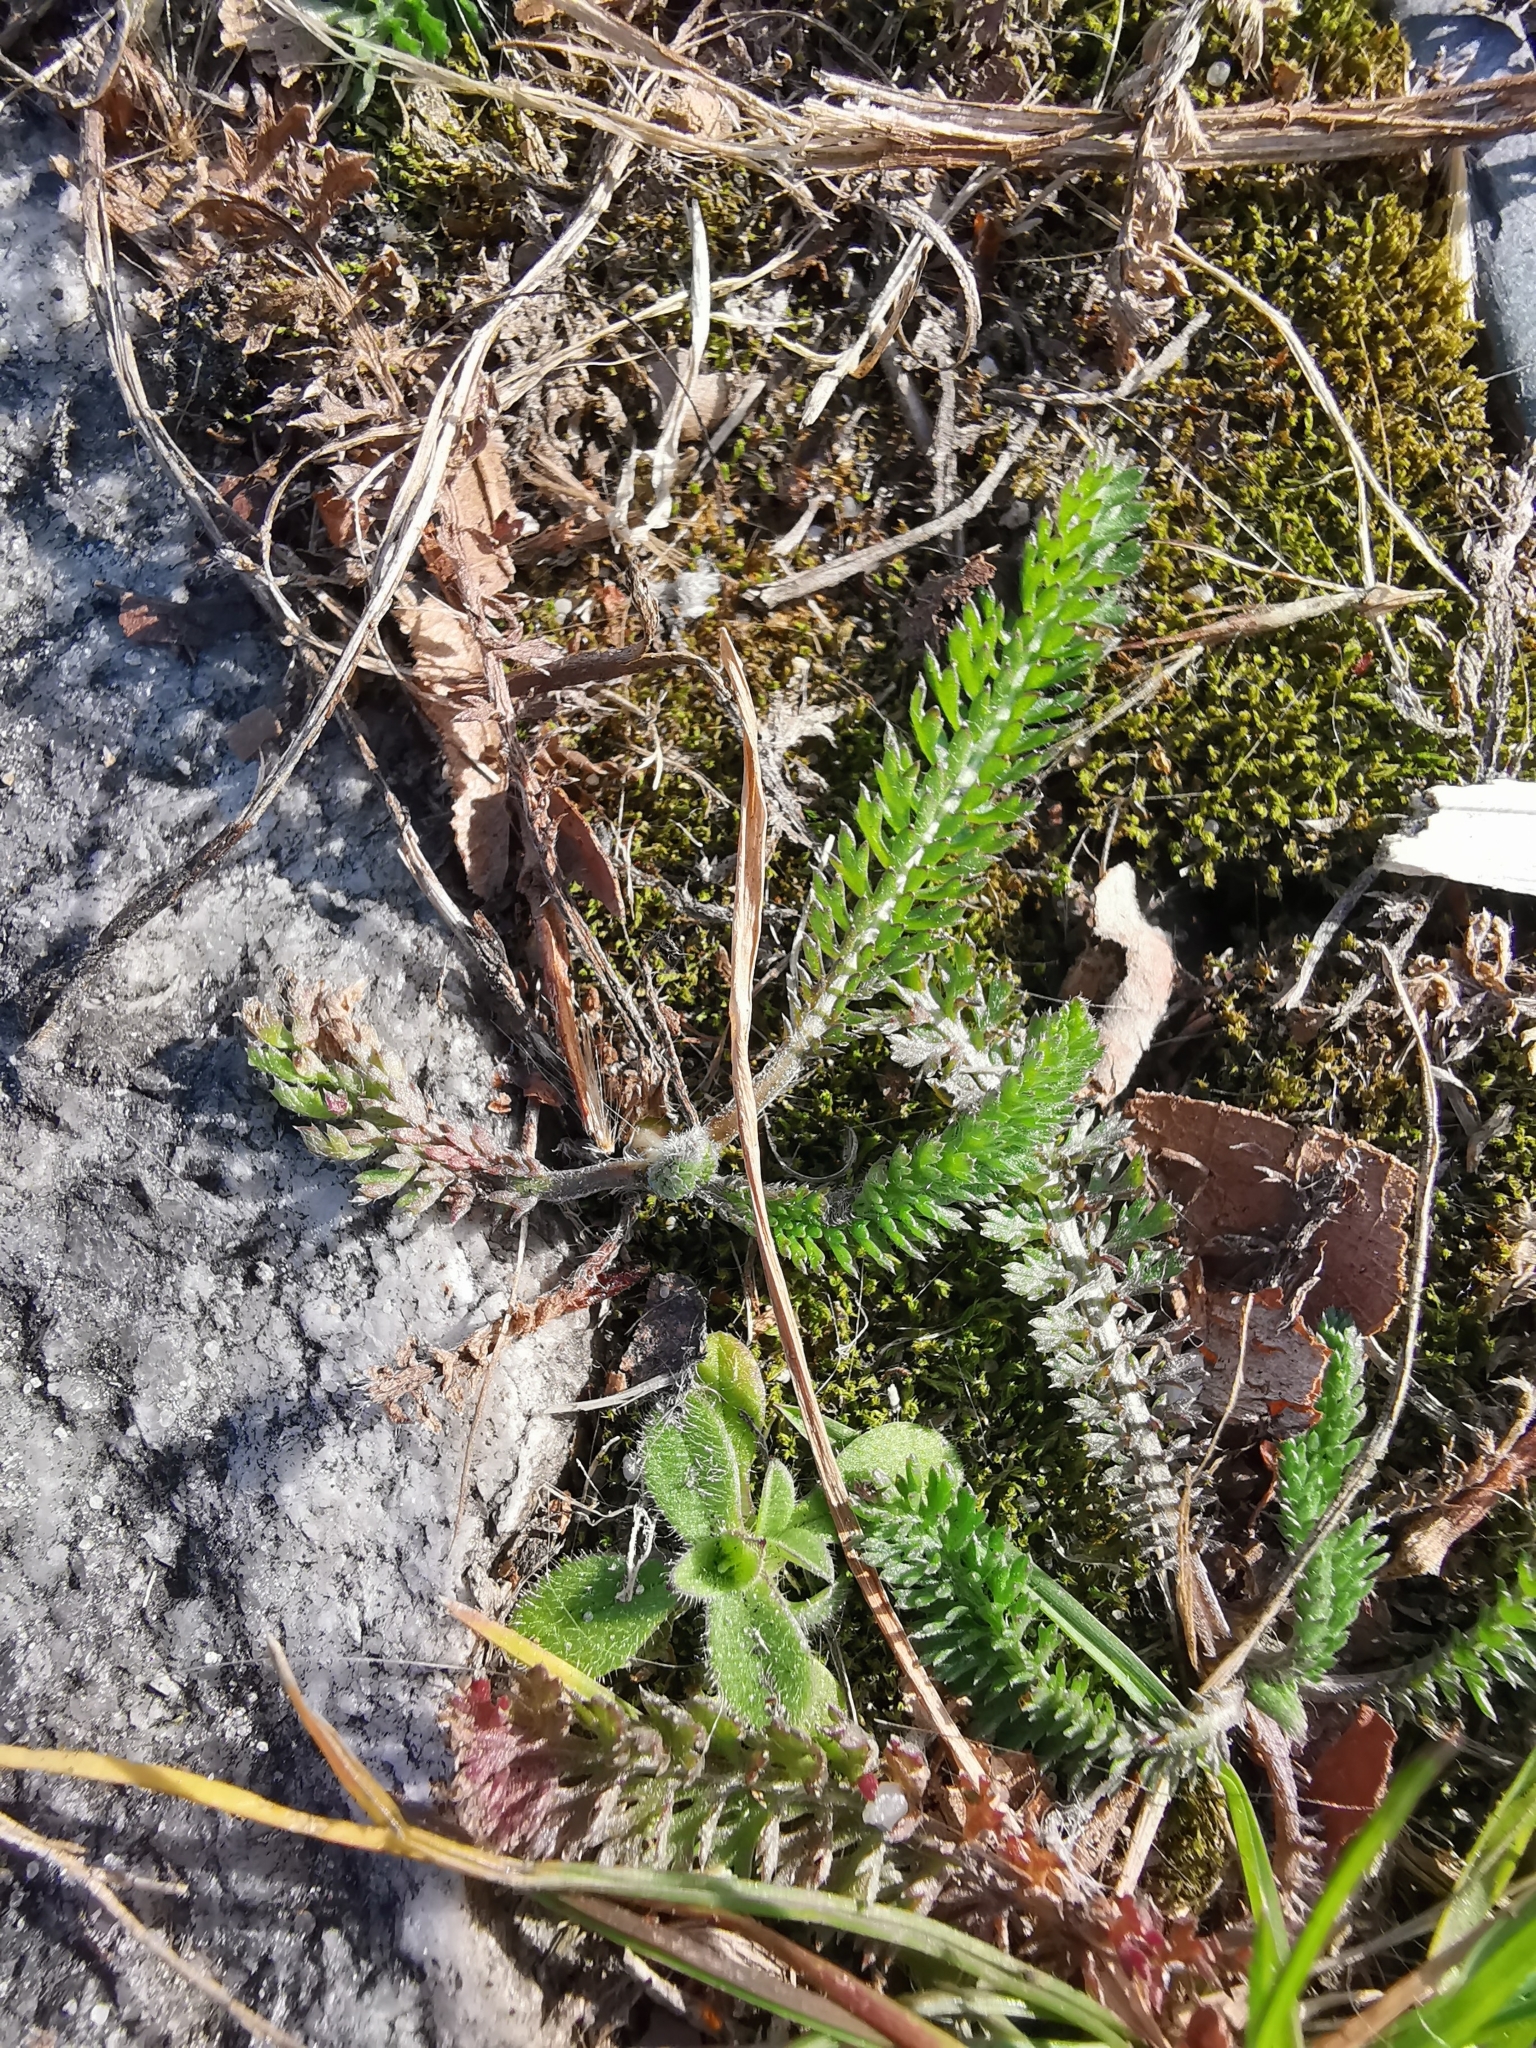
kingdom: Plantae
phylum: Tracheophyta
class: Magnoliopsida
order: Asterales
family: Asteraceae
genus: Achillea
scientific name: Achillea millefolium
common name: Yarrow
